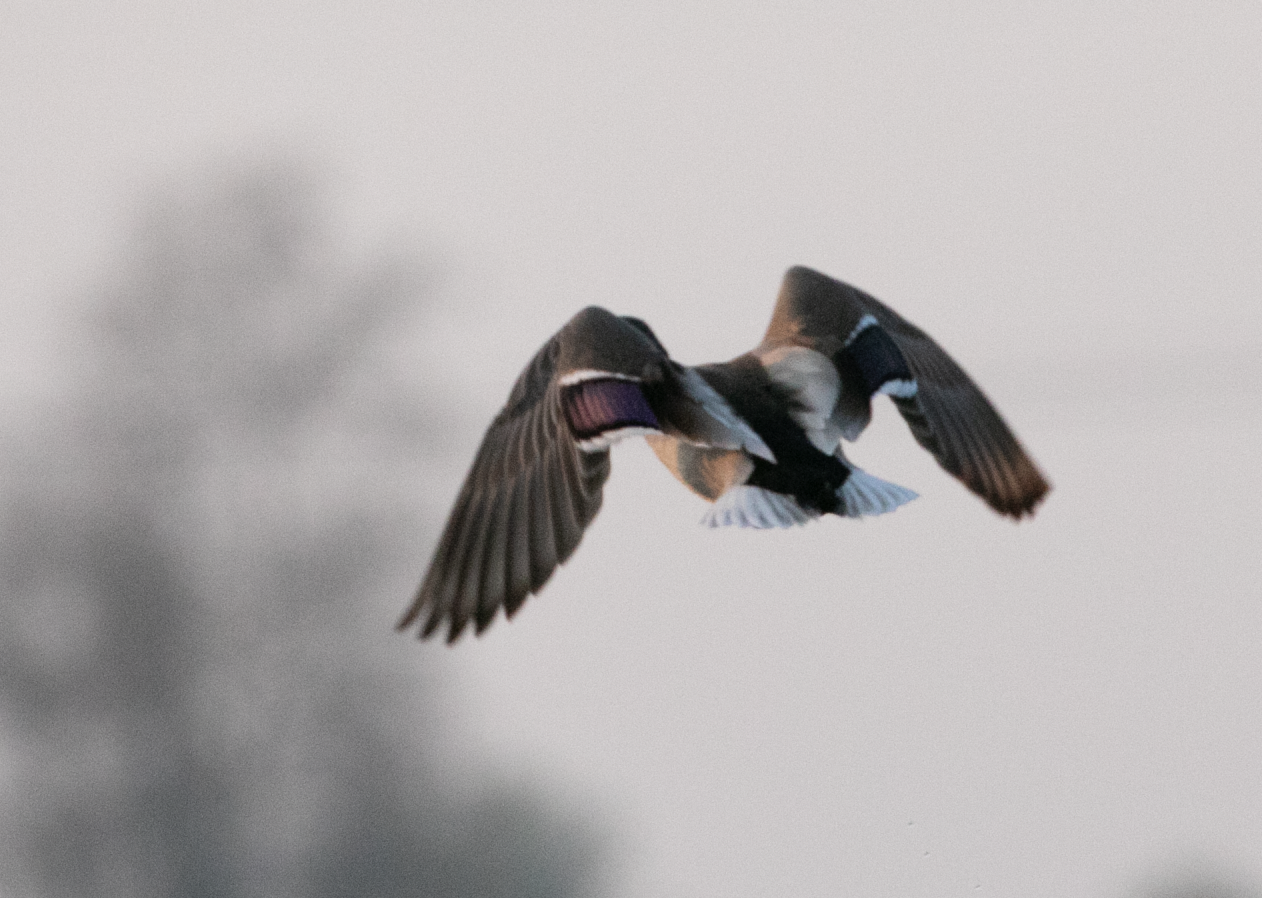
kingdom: Animalia
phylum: Chordata
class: Aves
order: Anseriformes
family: Anatidae
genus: Anas
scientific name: Anas platyrhynchos
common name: Mallard
